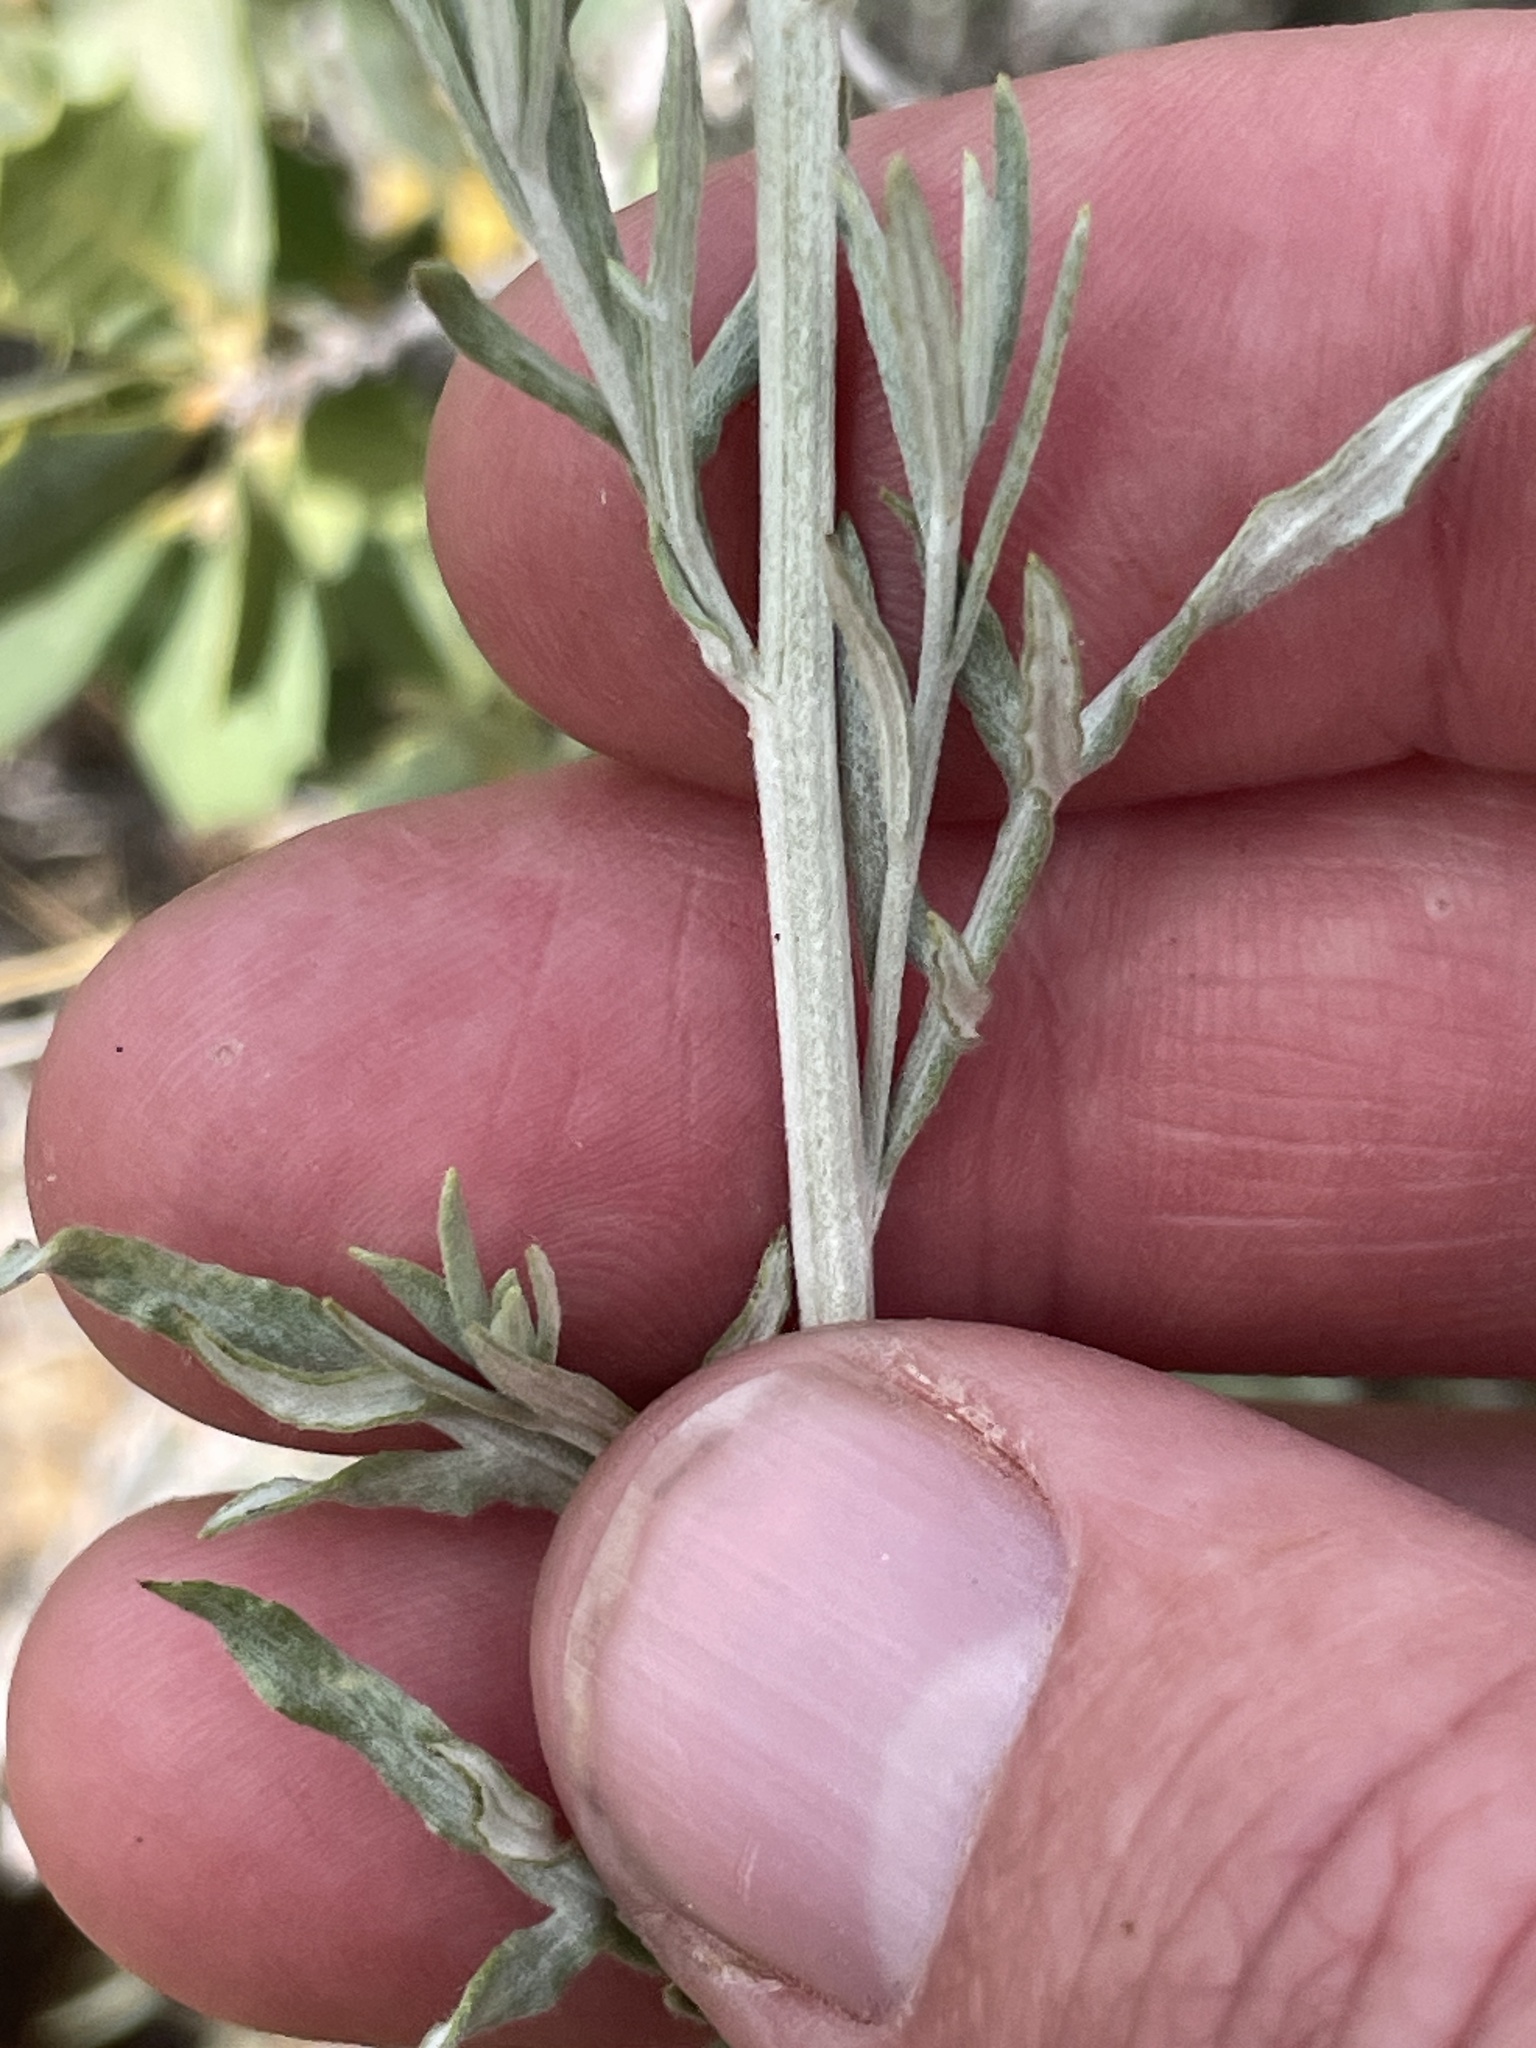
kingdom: Plantae
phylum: Tracheophyta
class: Magnoliopsida
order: Asterales
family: Asteraceae
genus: Artemisia
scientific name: Artemisia ludoviciana
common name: Western mugwort
